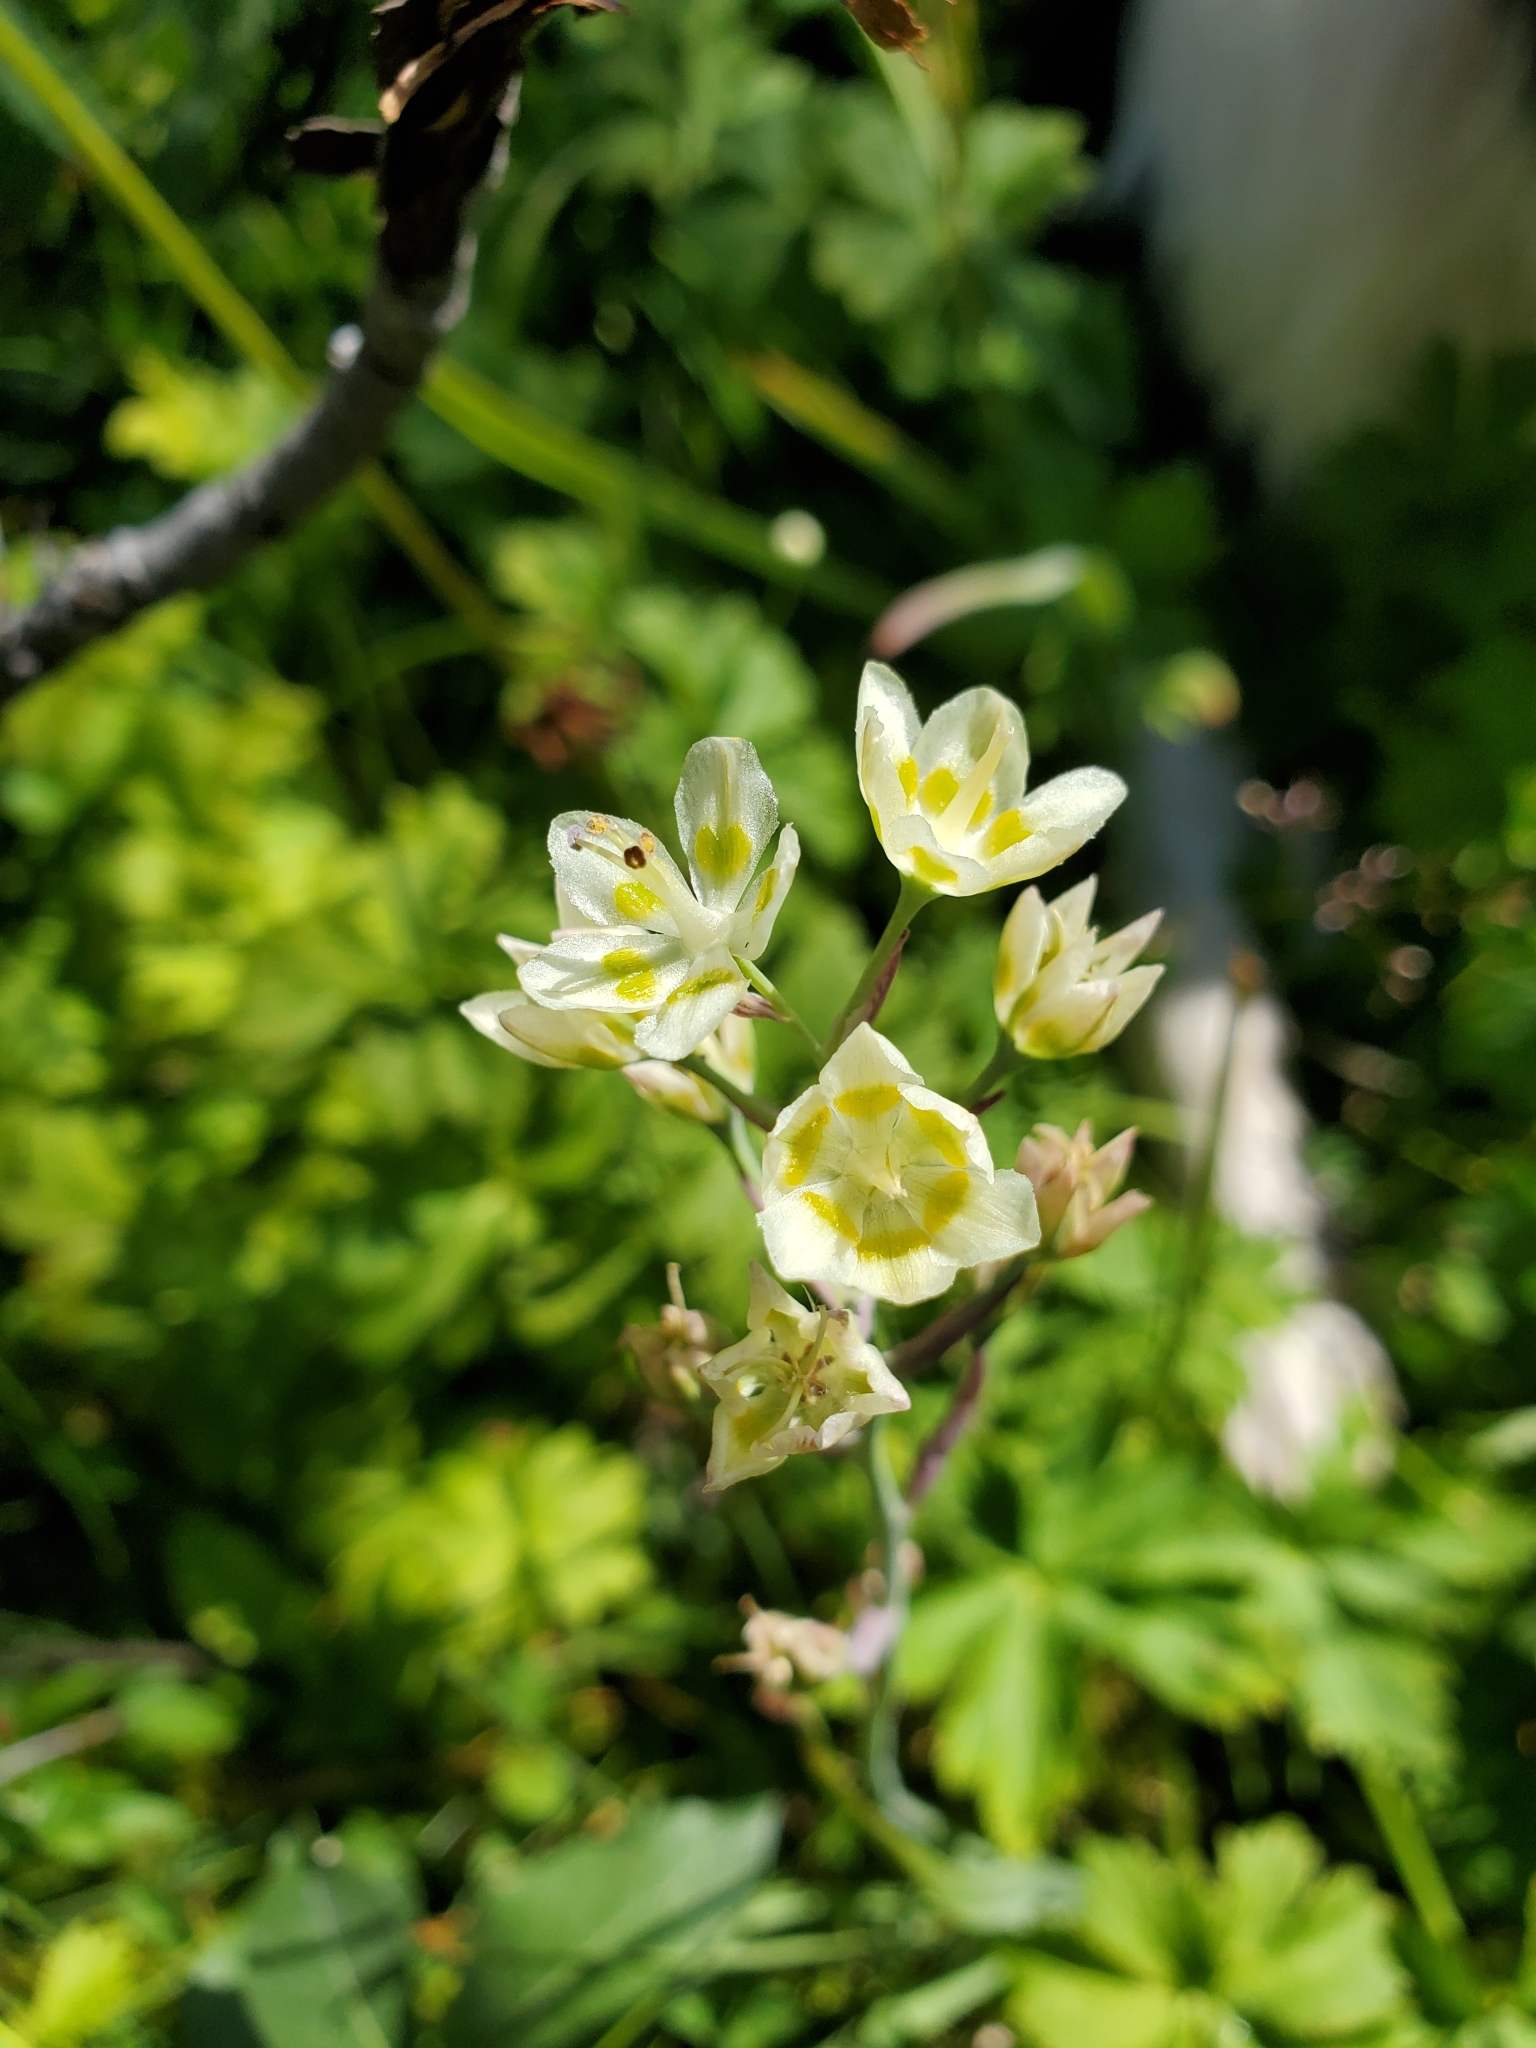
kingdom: Plantae
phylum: Tracheophyta
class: Liliopsida
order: Liliales
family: Melanthiaceae
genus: Anticlea
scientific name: Anticlea elegans
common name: Mountain death camas
